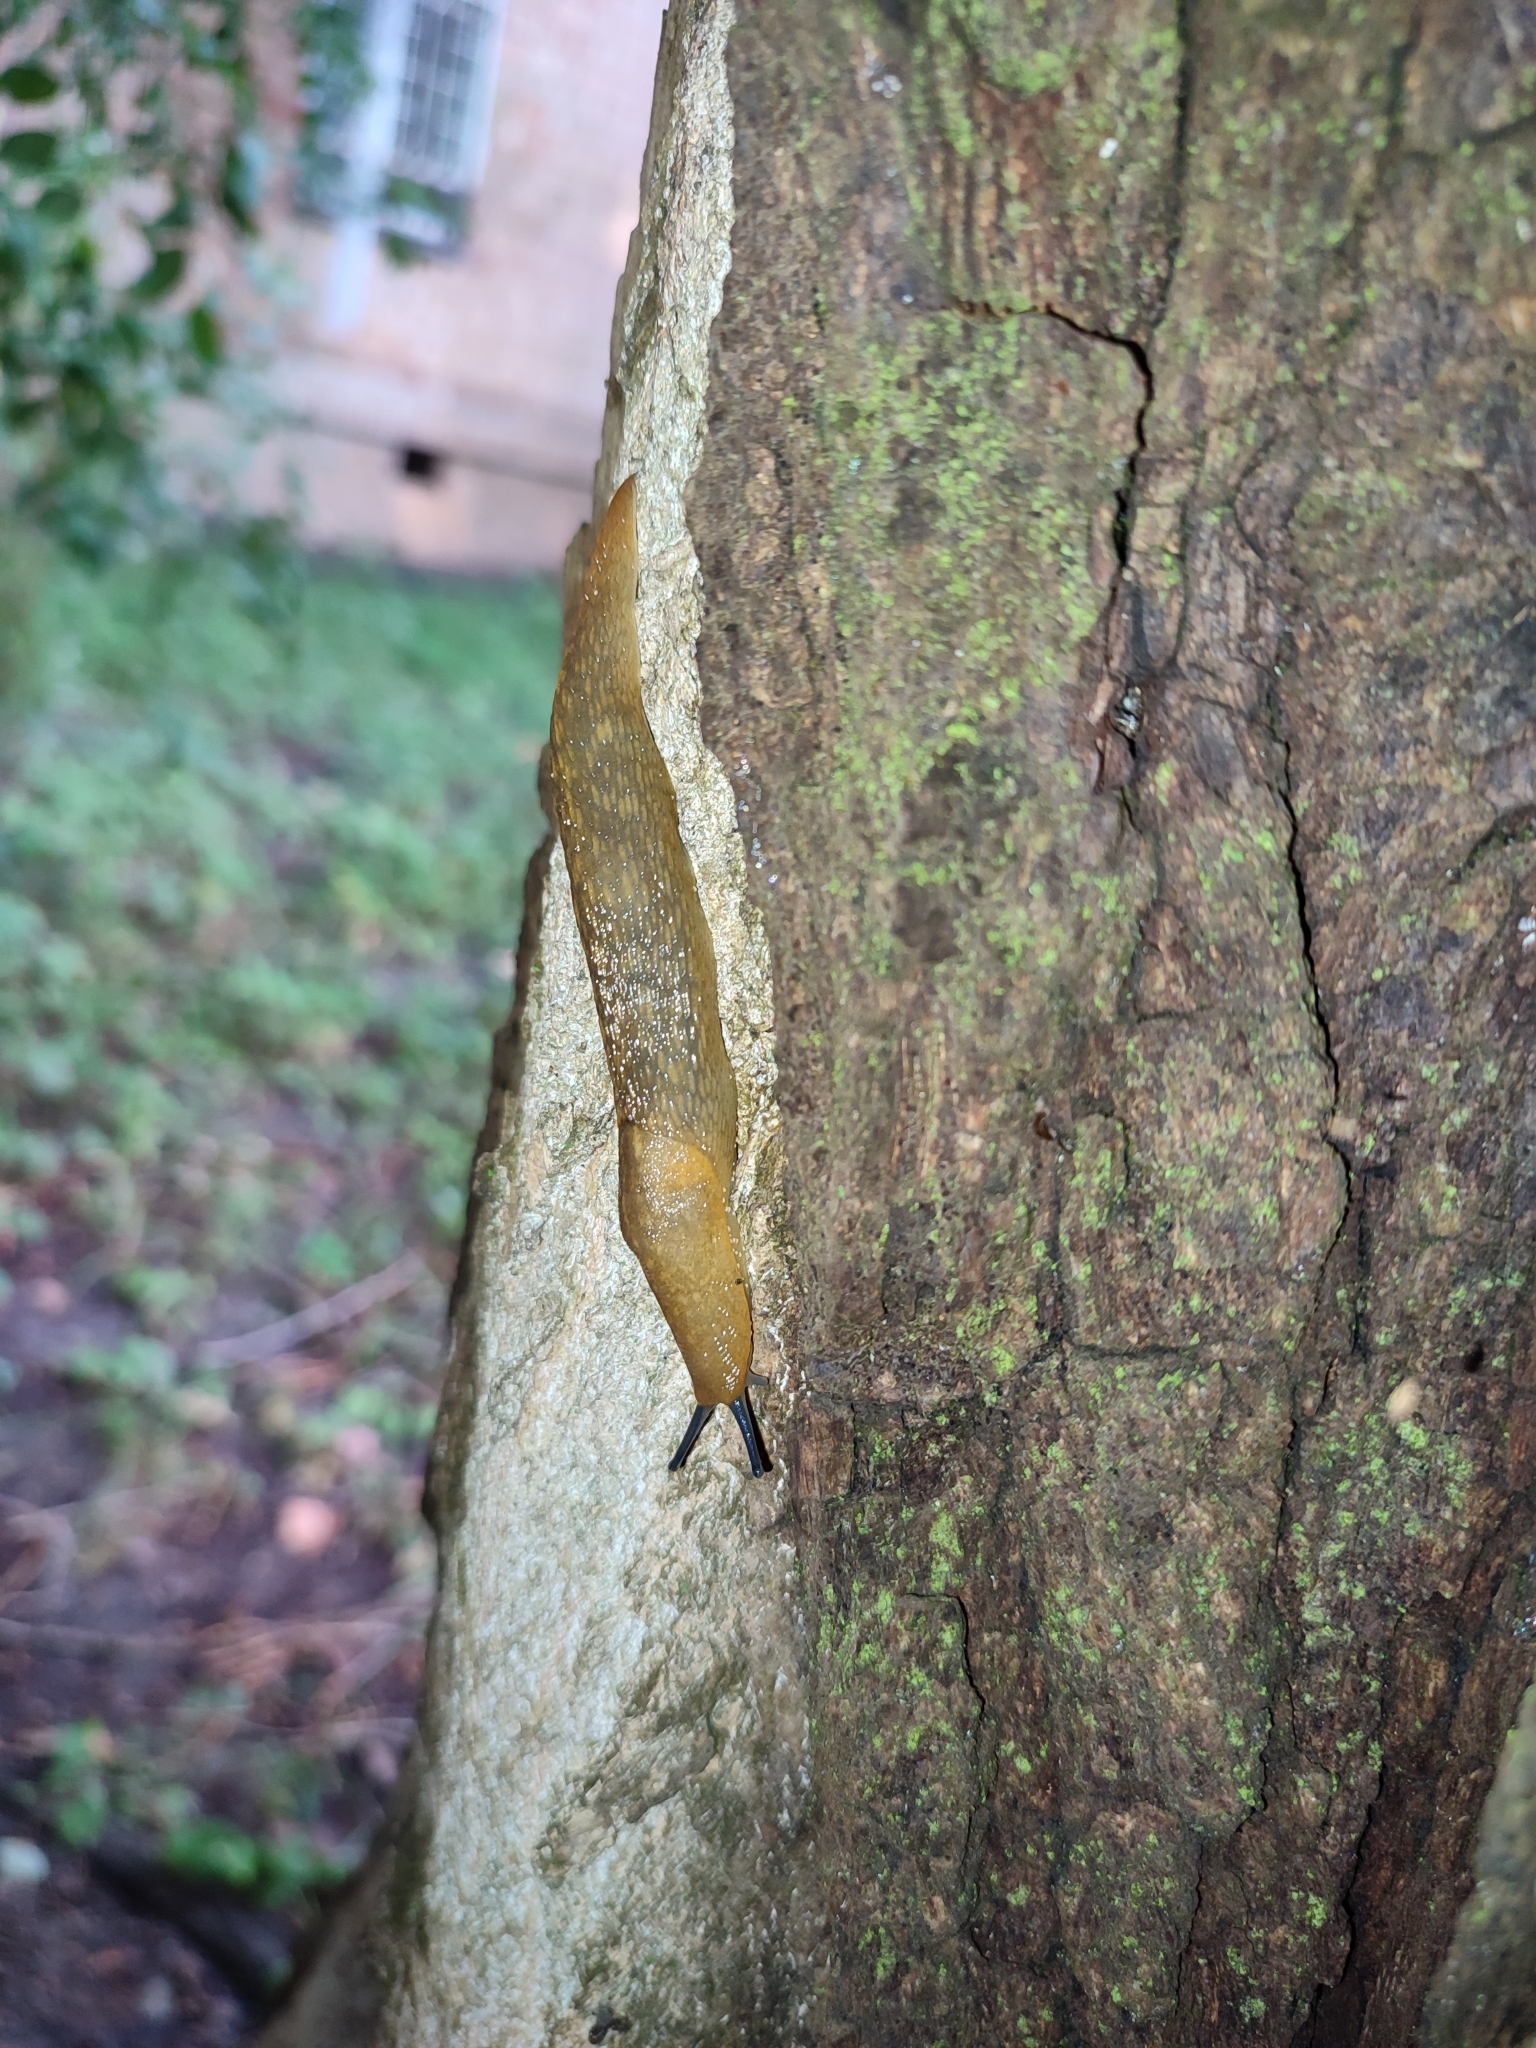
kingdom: Animalia
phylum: Mollusca
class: Gastropoda
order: Stylommatophora
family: Limacidae
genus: Limacus
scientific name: Limacus flavus
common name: Yellow gardenslug
